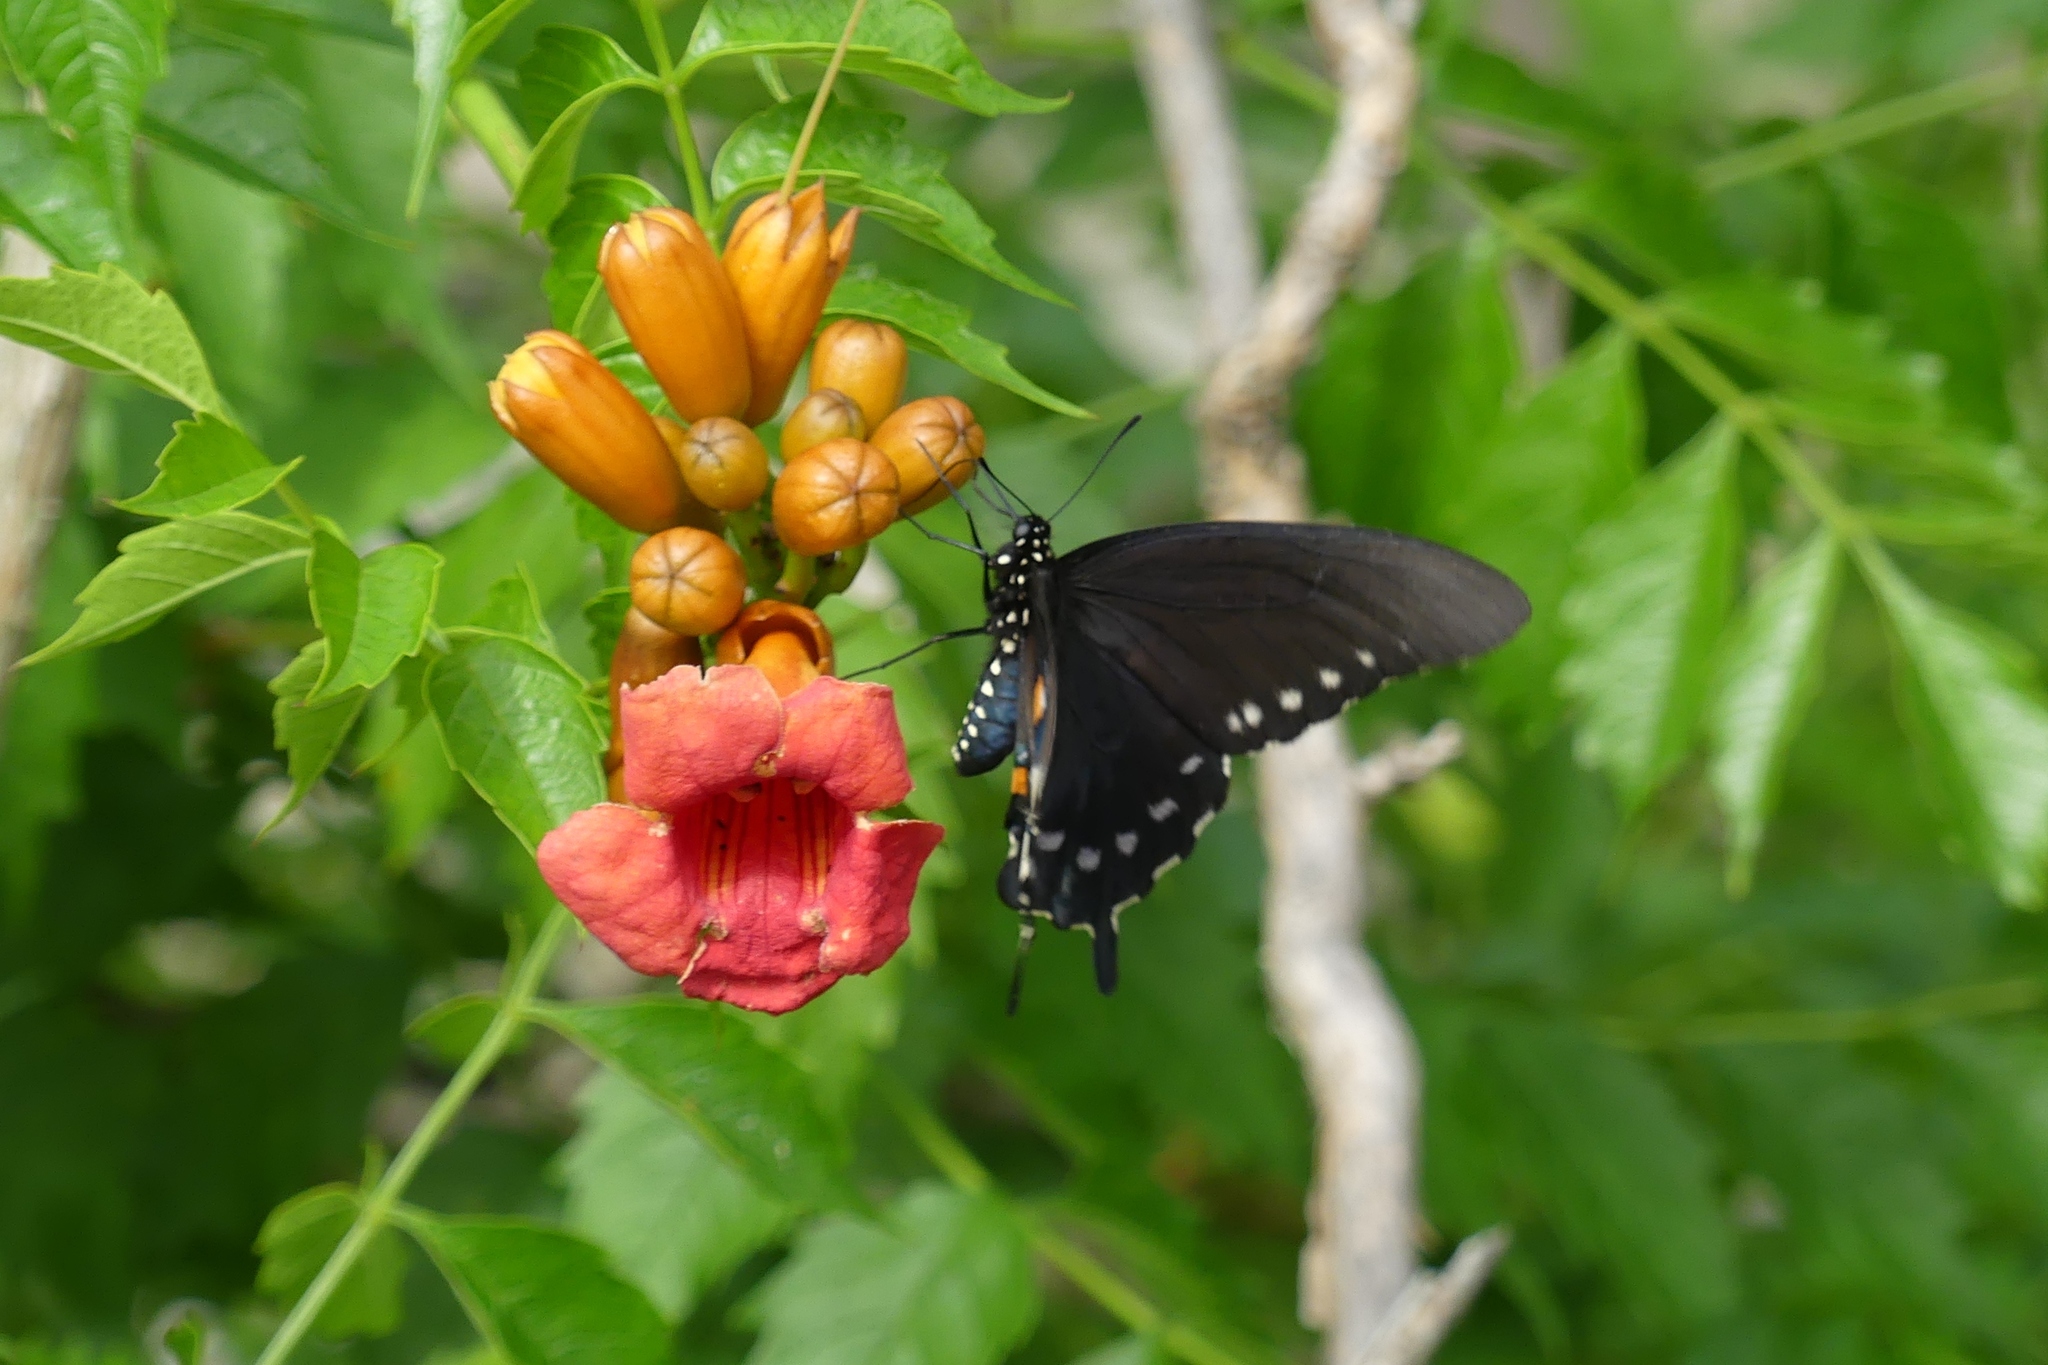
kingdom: Animalia
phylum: Arthropoda
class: Insecta
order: Lepidoptera
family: Papilionidae
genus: Battus
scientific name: Battus philenor
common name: Pipevine swallowtail
